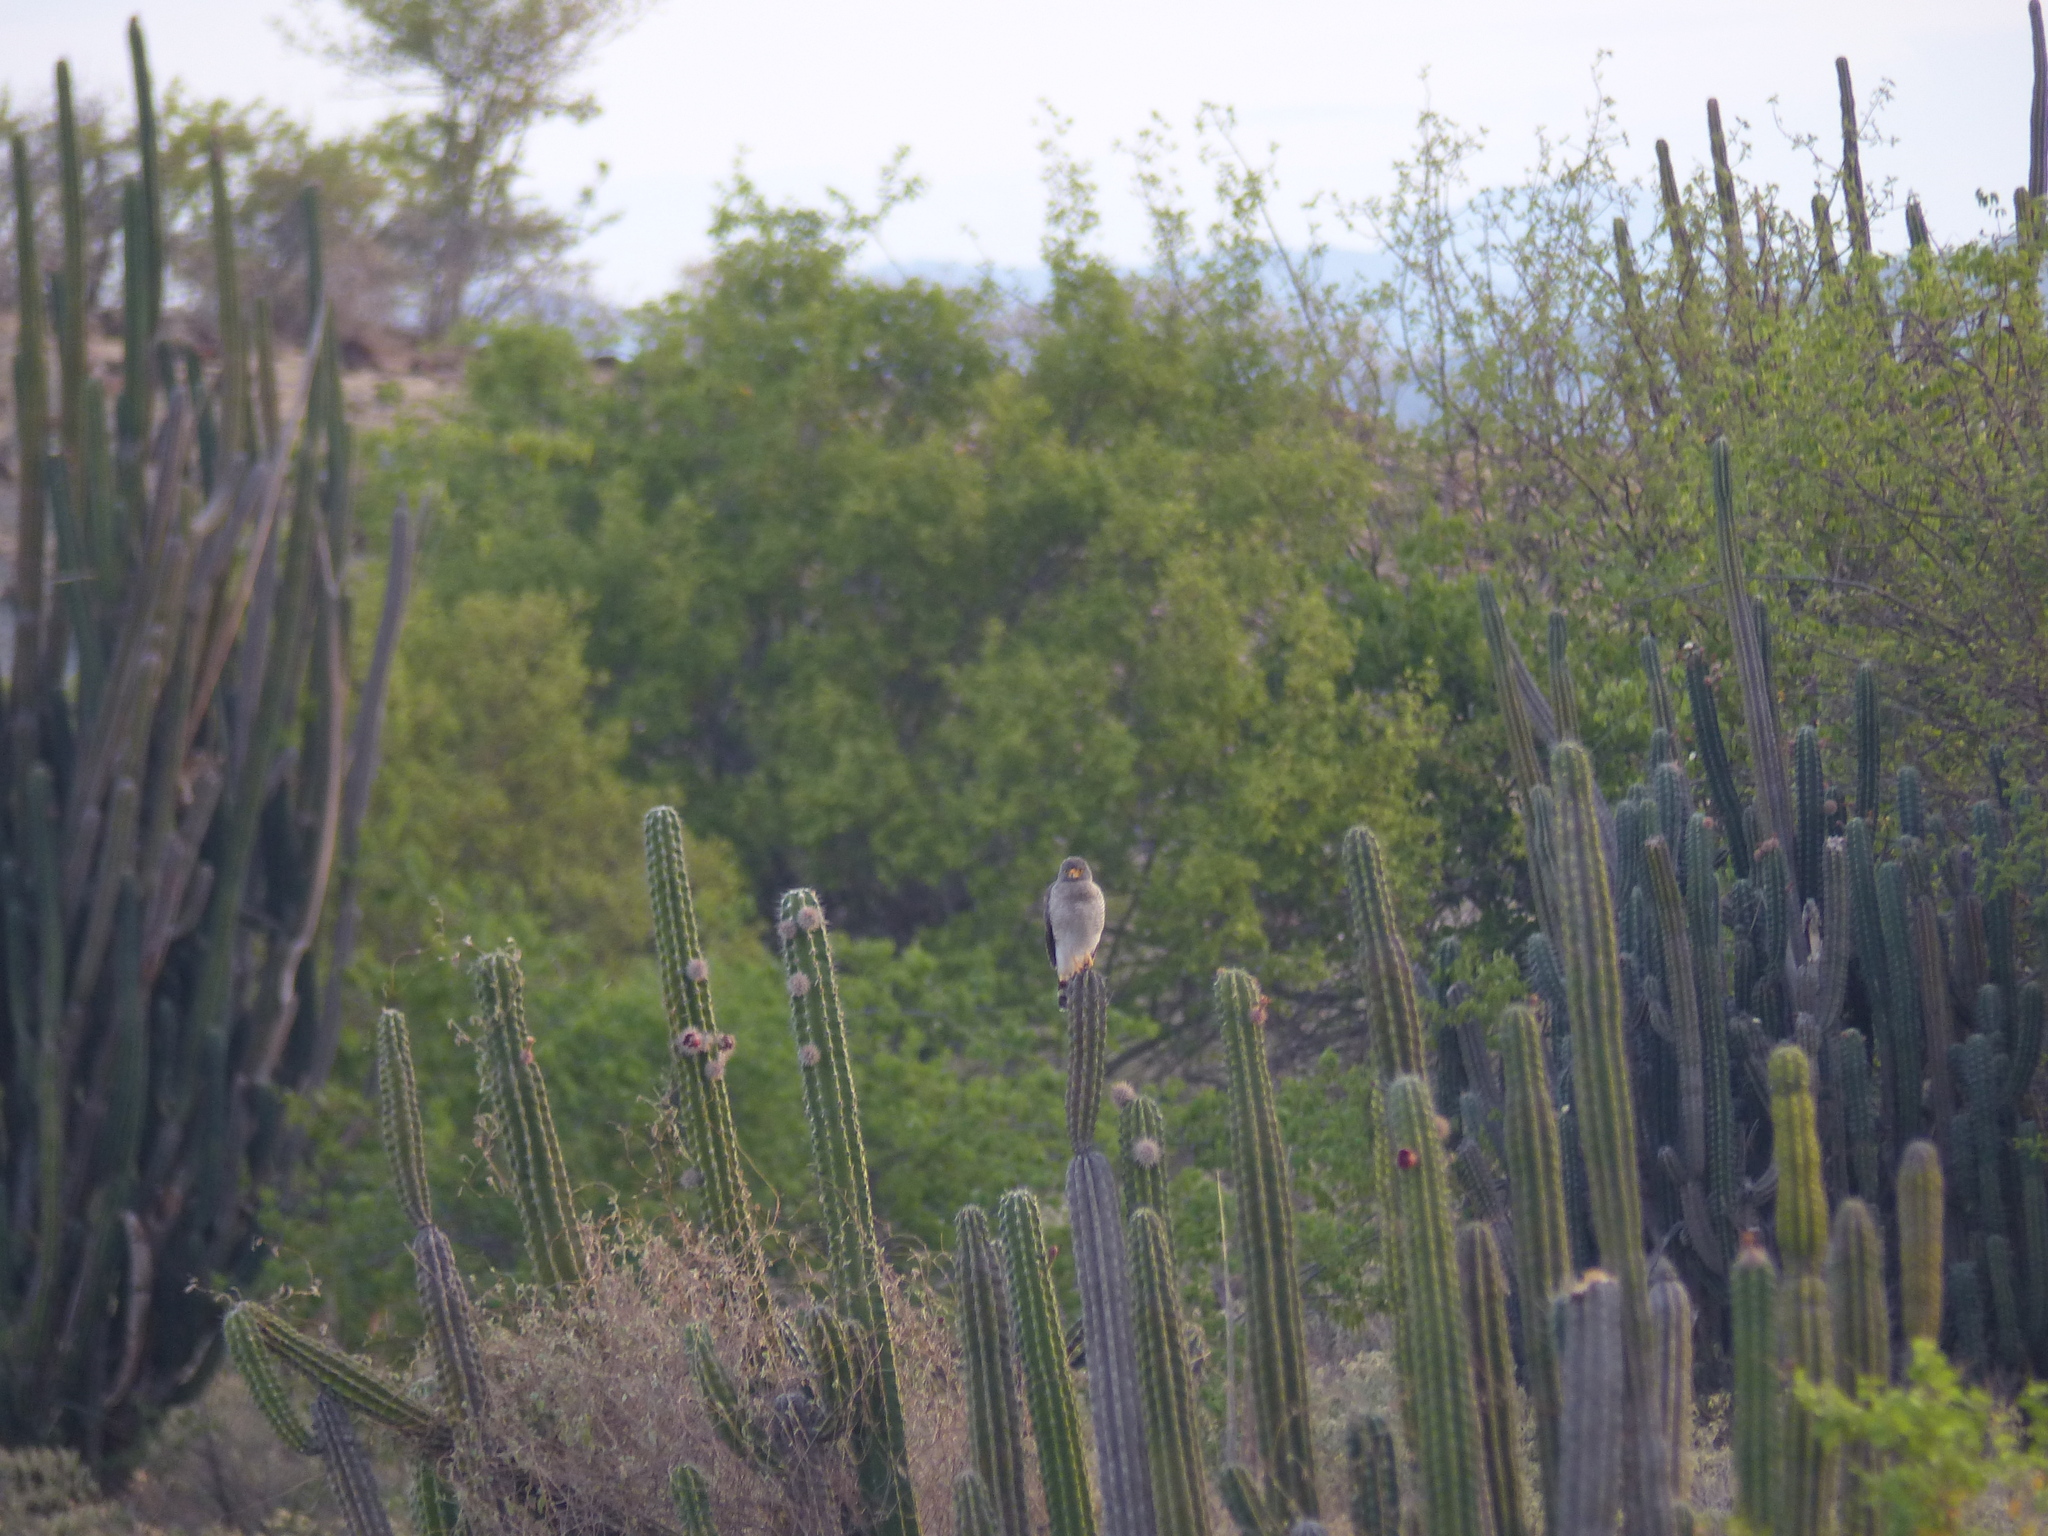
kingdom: Animalia
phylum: Chordata
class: Aves
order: Accipitriformes
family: Accipitridae
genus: Rupornis
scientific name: Rupornis magnirostris
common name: Roadside hawk
